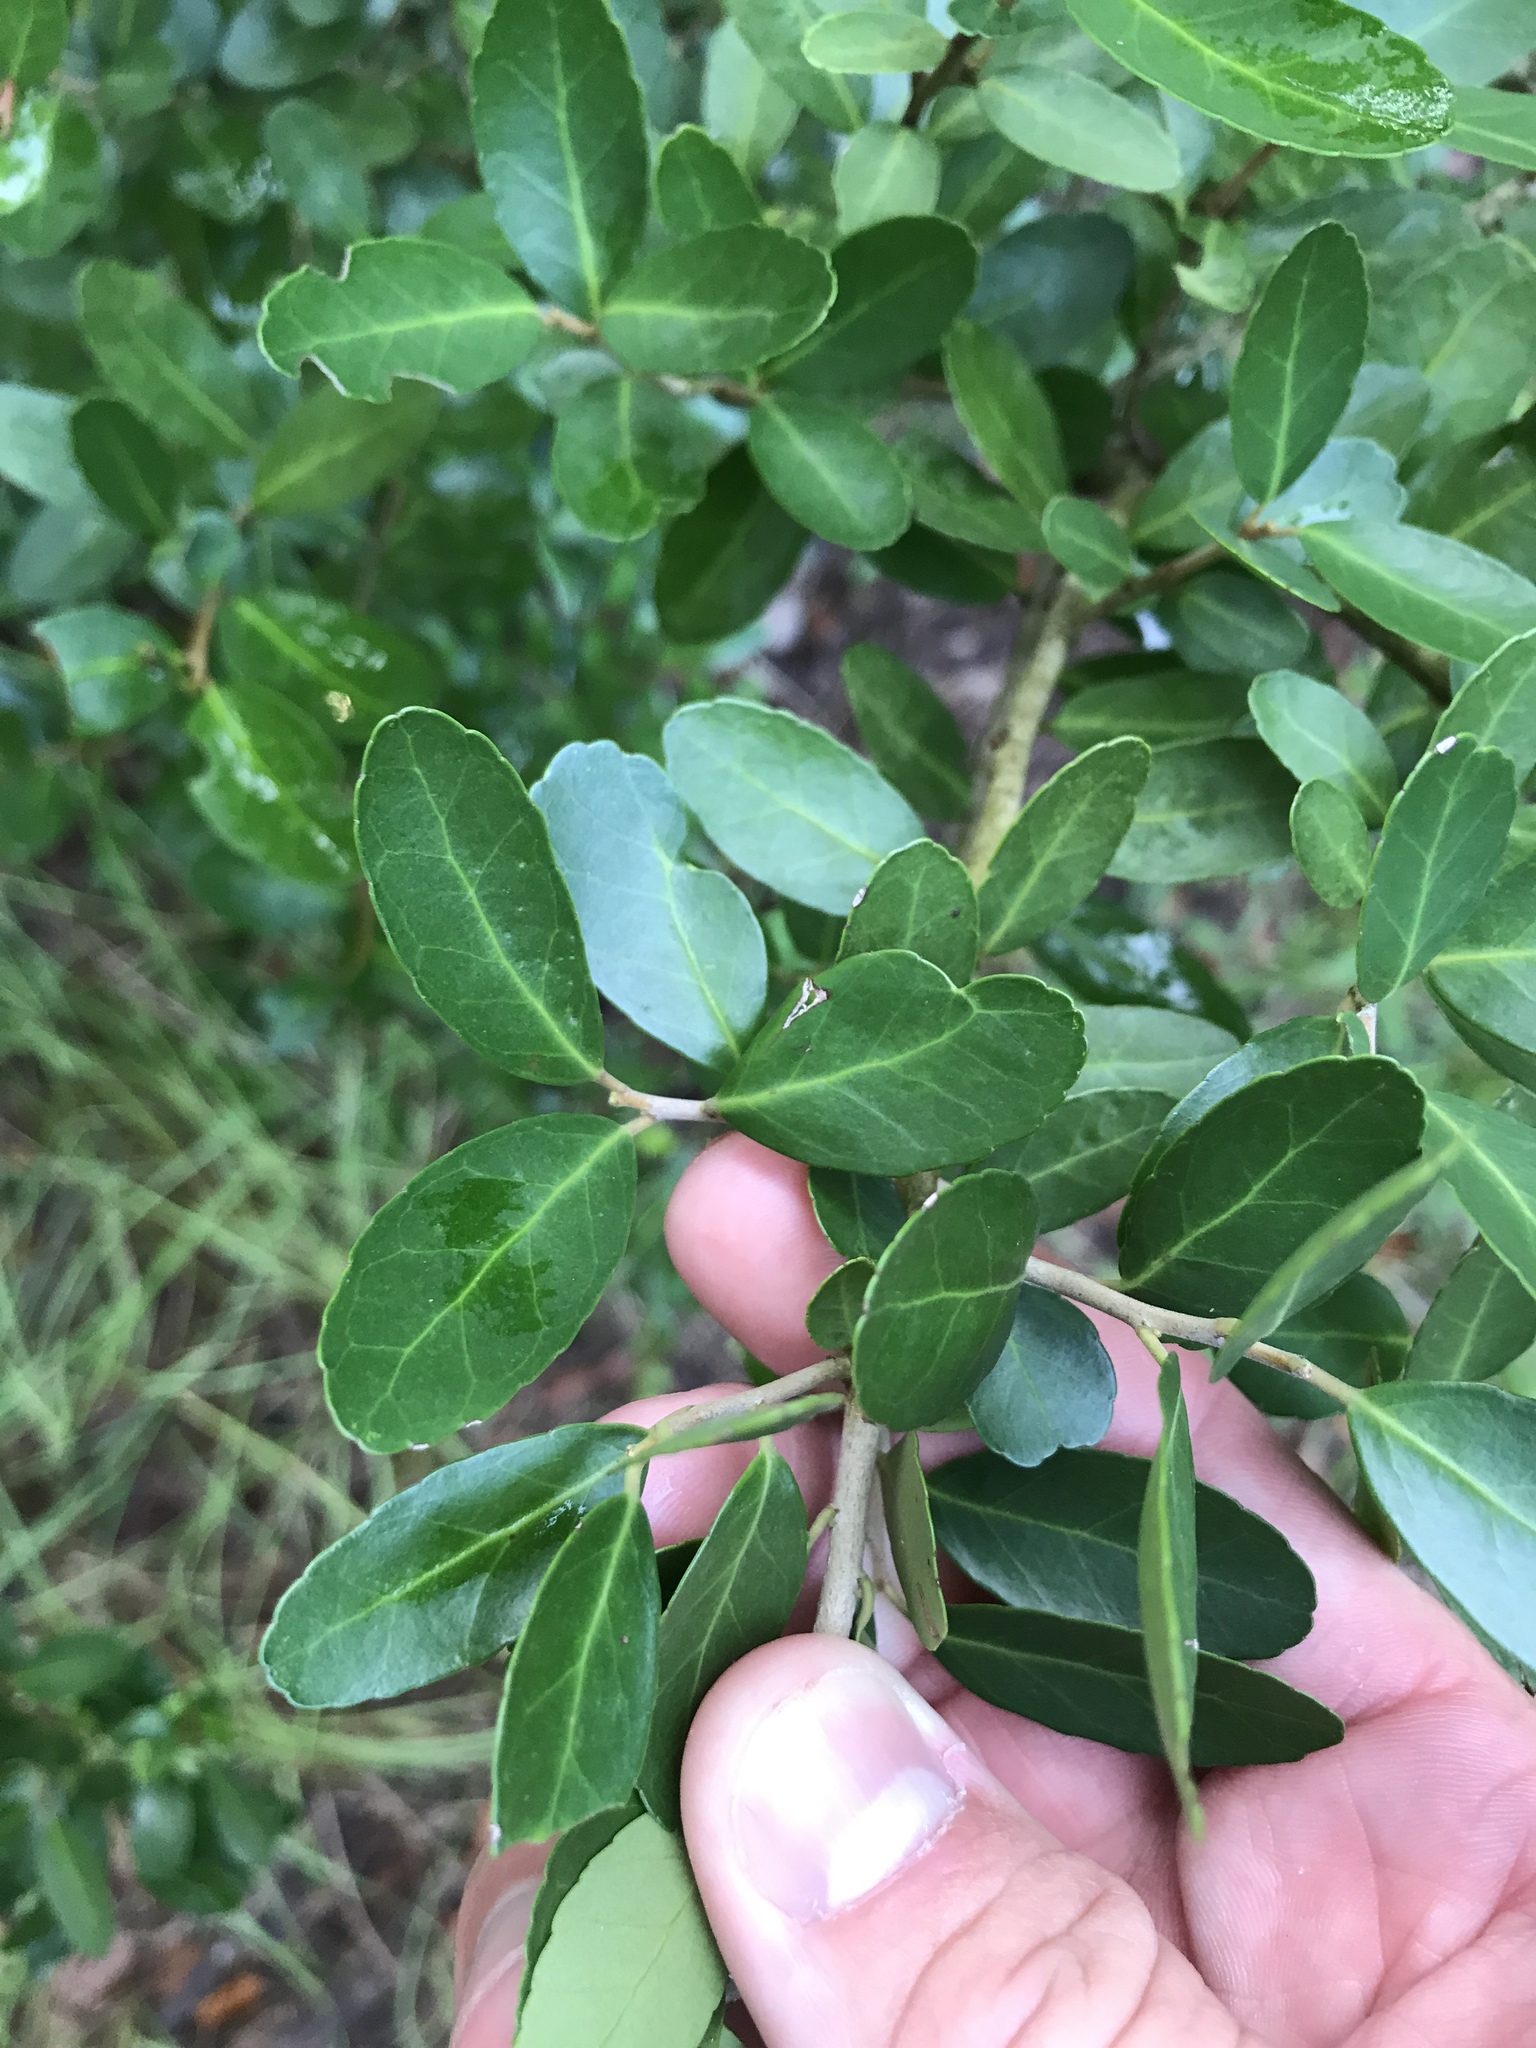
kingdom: Plantae
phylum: Tracheophyta
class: Magnoliopsida
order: Aquifoliales
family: Aquifoliaceae
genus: Ilex
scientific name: Ilex vomitoria
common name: Yaupon holly
